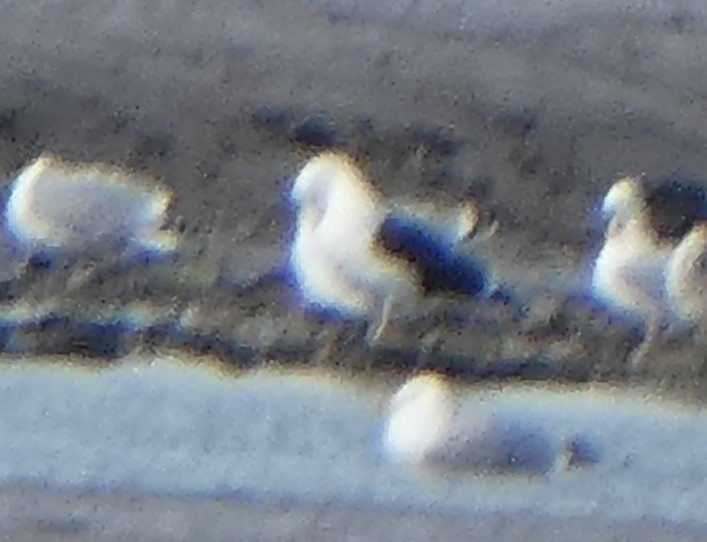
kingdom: Animalia
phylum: Chordata
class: Aves
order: Charadriiformes
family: Laridae
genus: Larus
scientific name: Larus marinus
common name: Great black-backed gull
